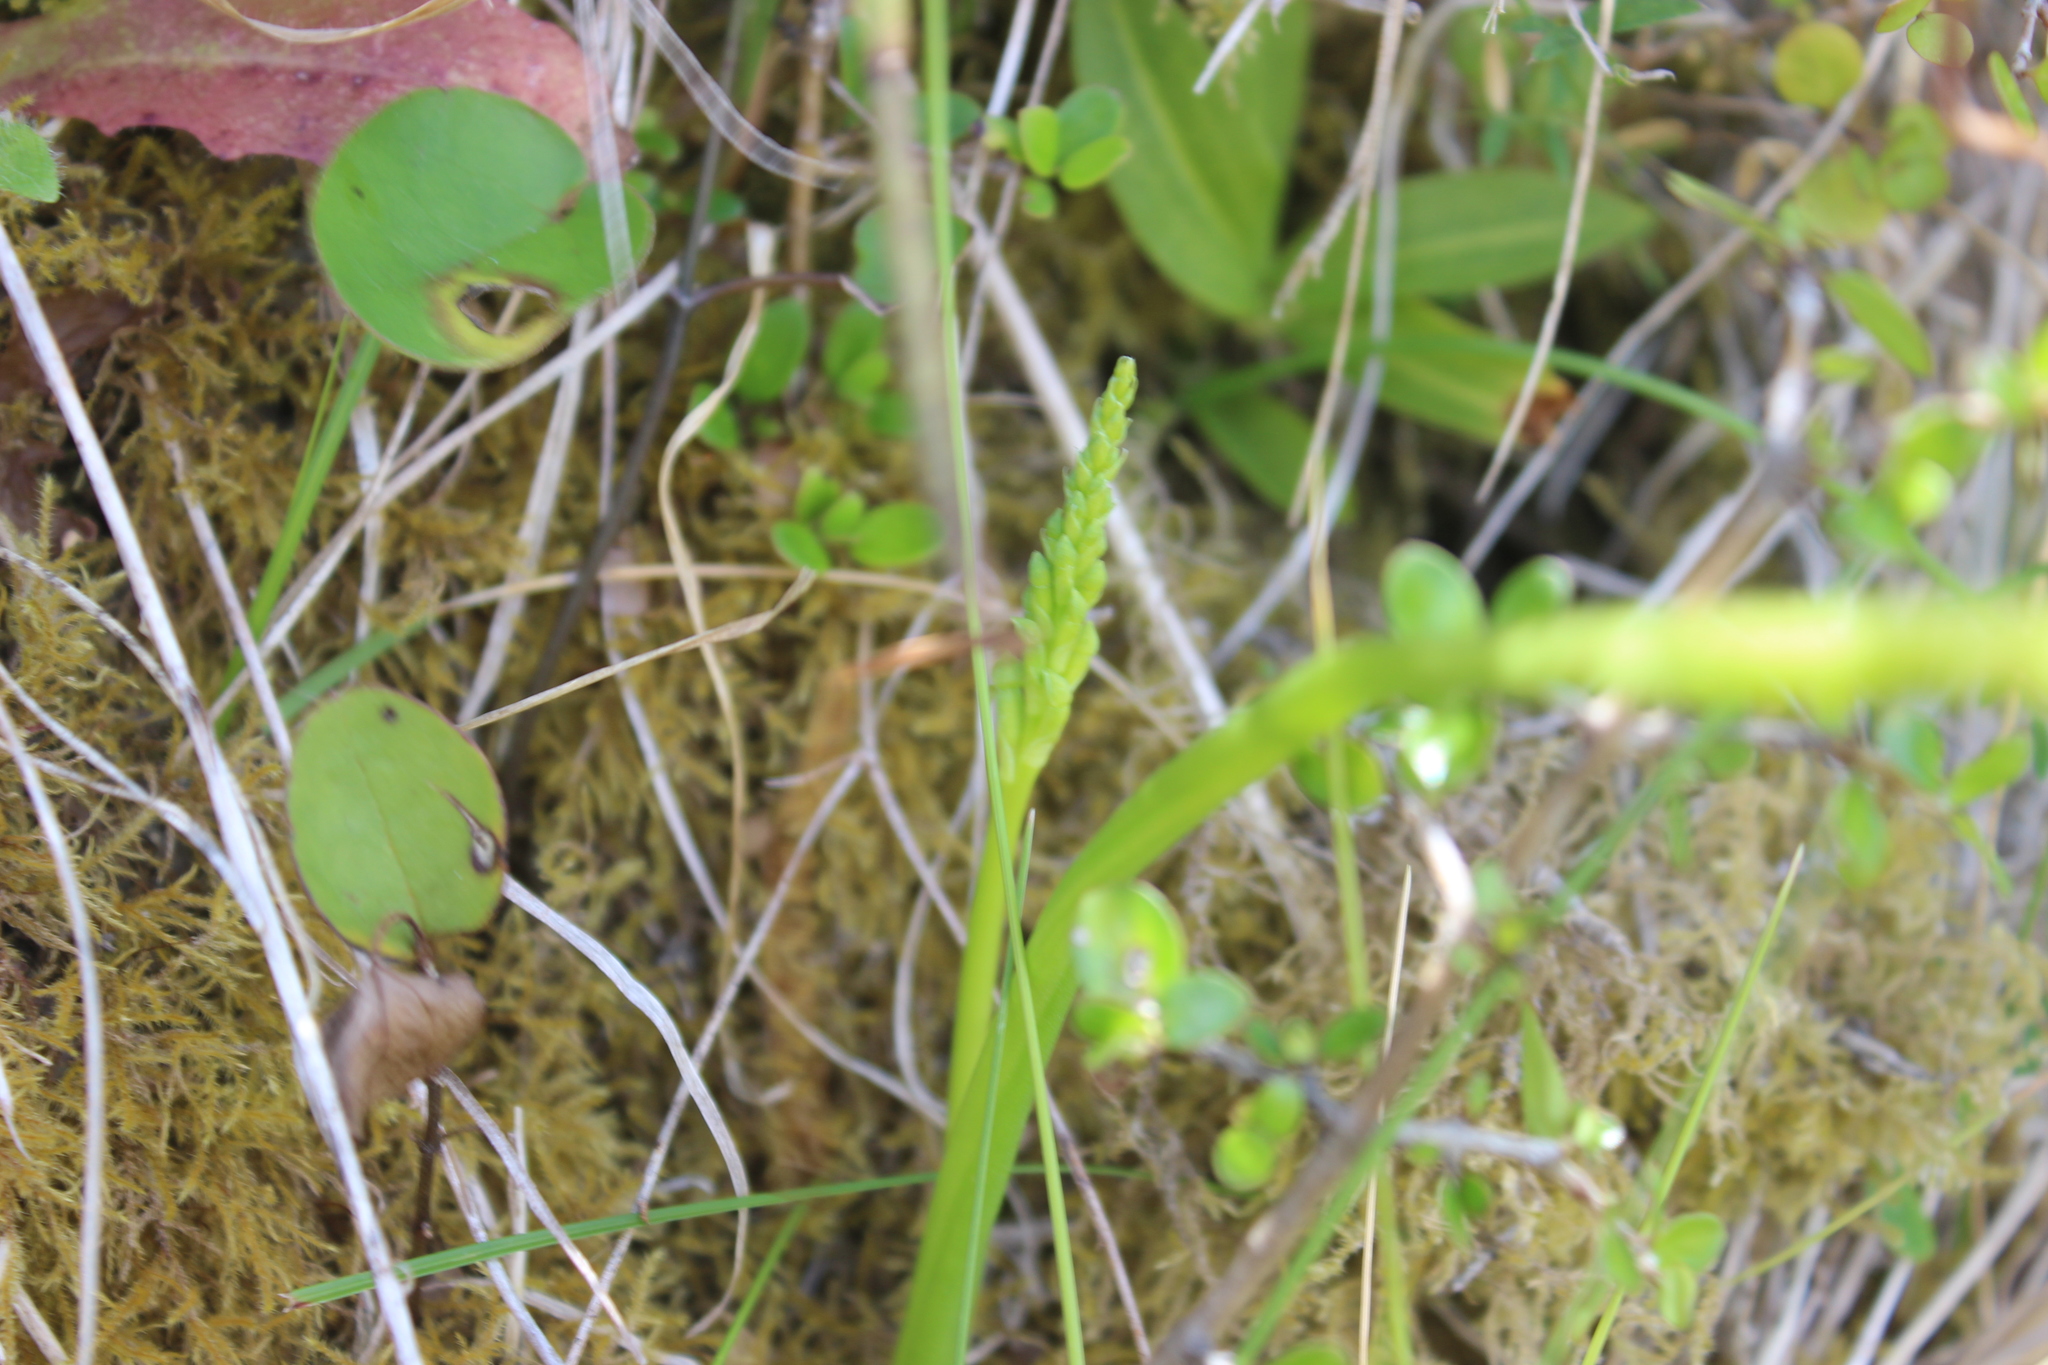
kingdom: Plantae
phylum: Tracheophyta
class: Liliopsida
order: Asparagales
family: Orchidaceae
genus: Microtis
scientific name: Microtis unifolia
